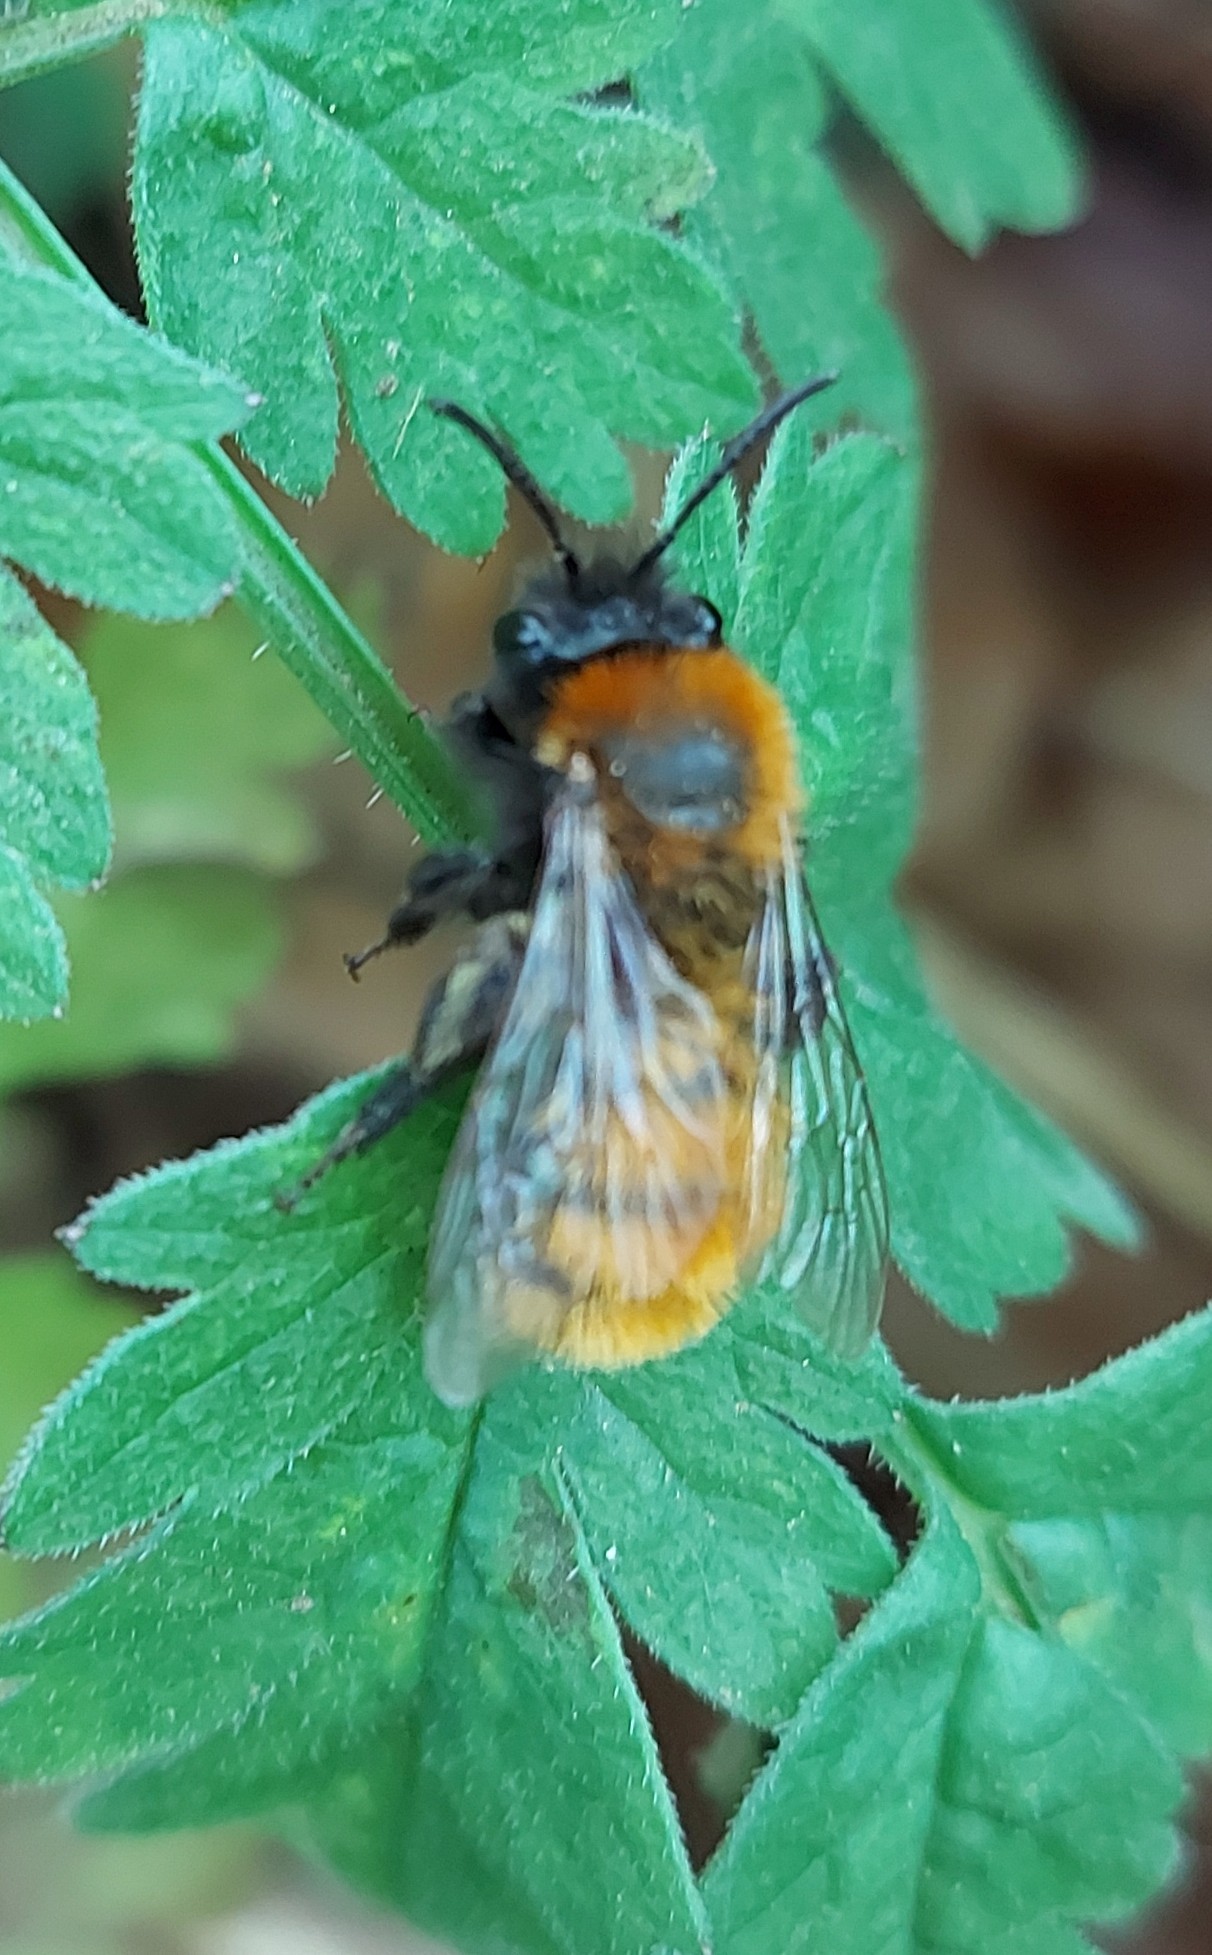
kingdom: Animalia
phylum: Arthropoda
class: Insecta
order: Hymenoptera
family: Andrenidae
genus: Andrena
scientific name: Andrena fulva
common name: Tawny mining bee
